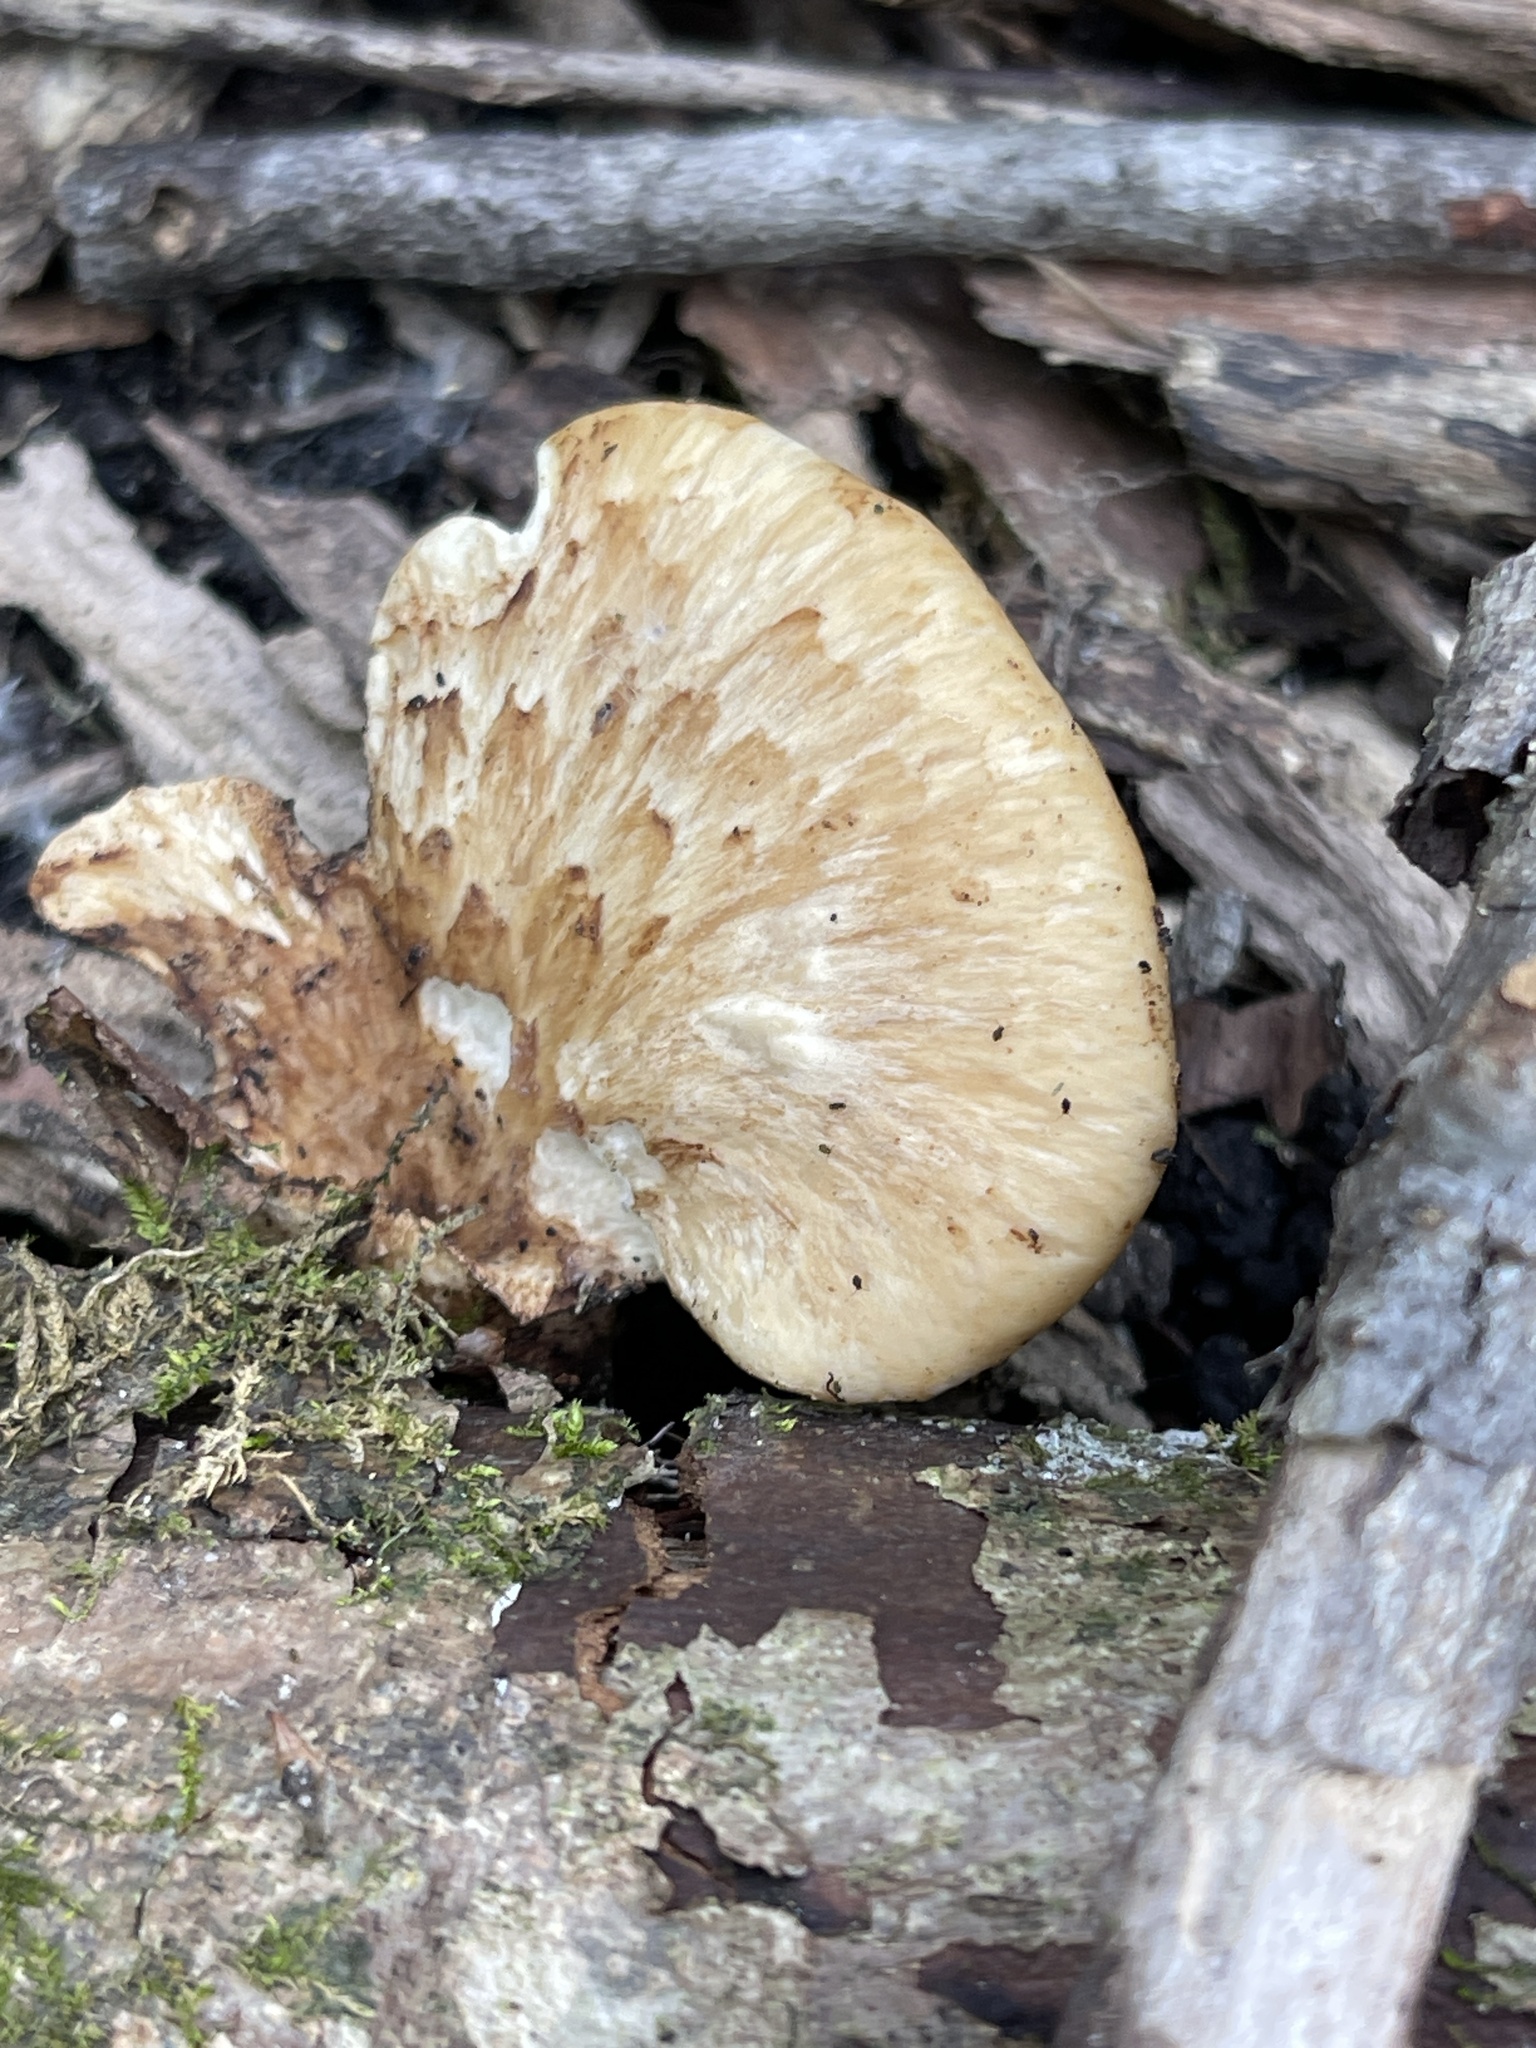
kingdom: Fungi
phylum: Basidiomycota
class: Agaricomycetes
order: Polyporales
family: Polyporaceae
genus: Cerioporus
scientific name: Cerioporus squamosus
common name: Dryad's saddle
